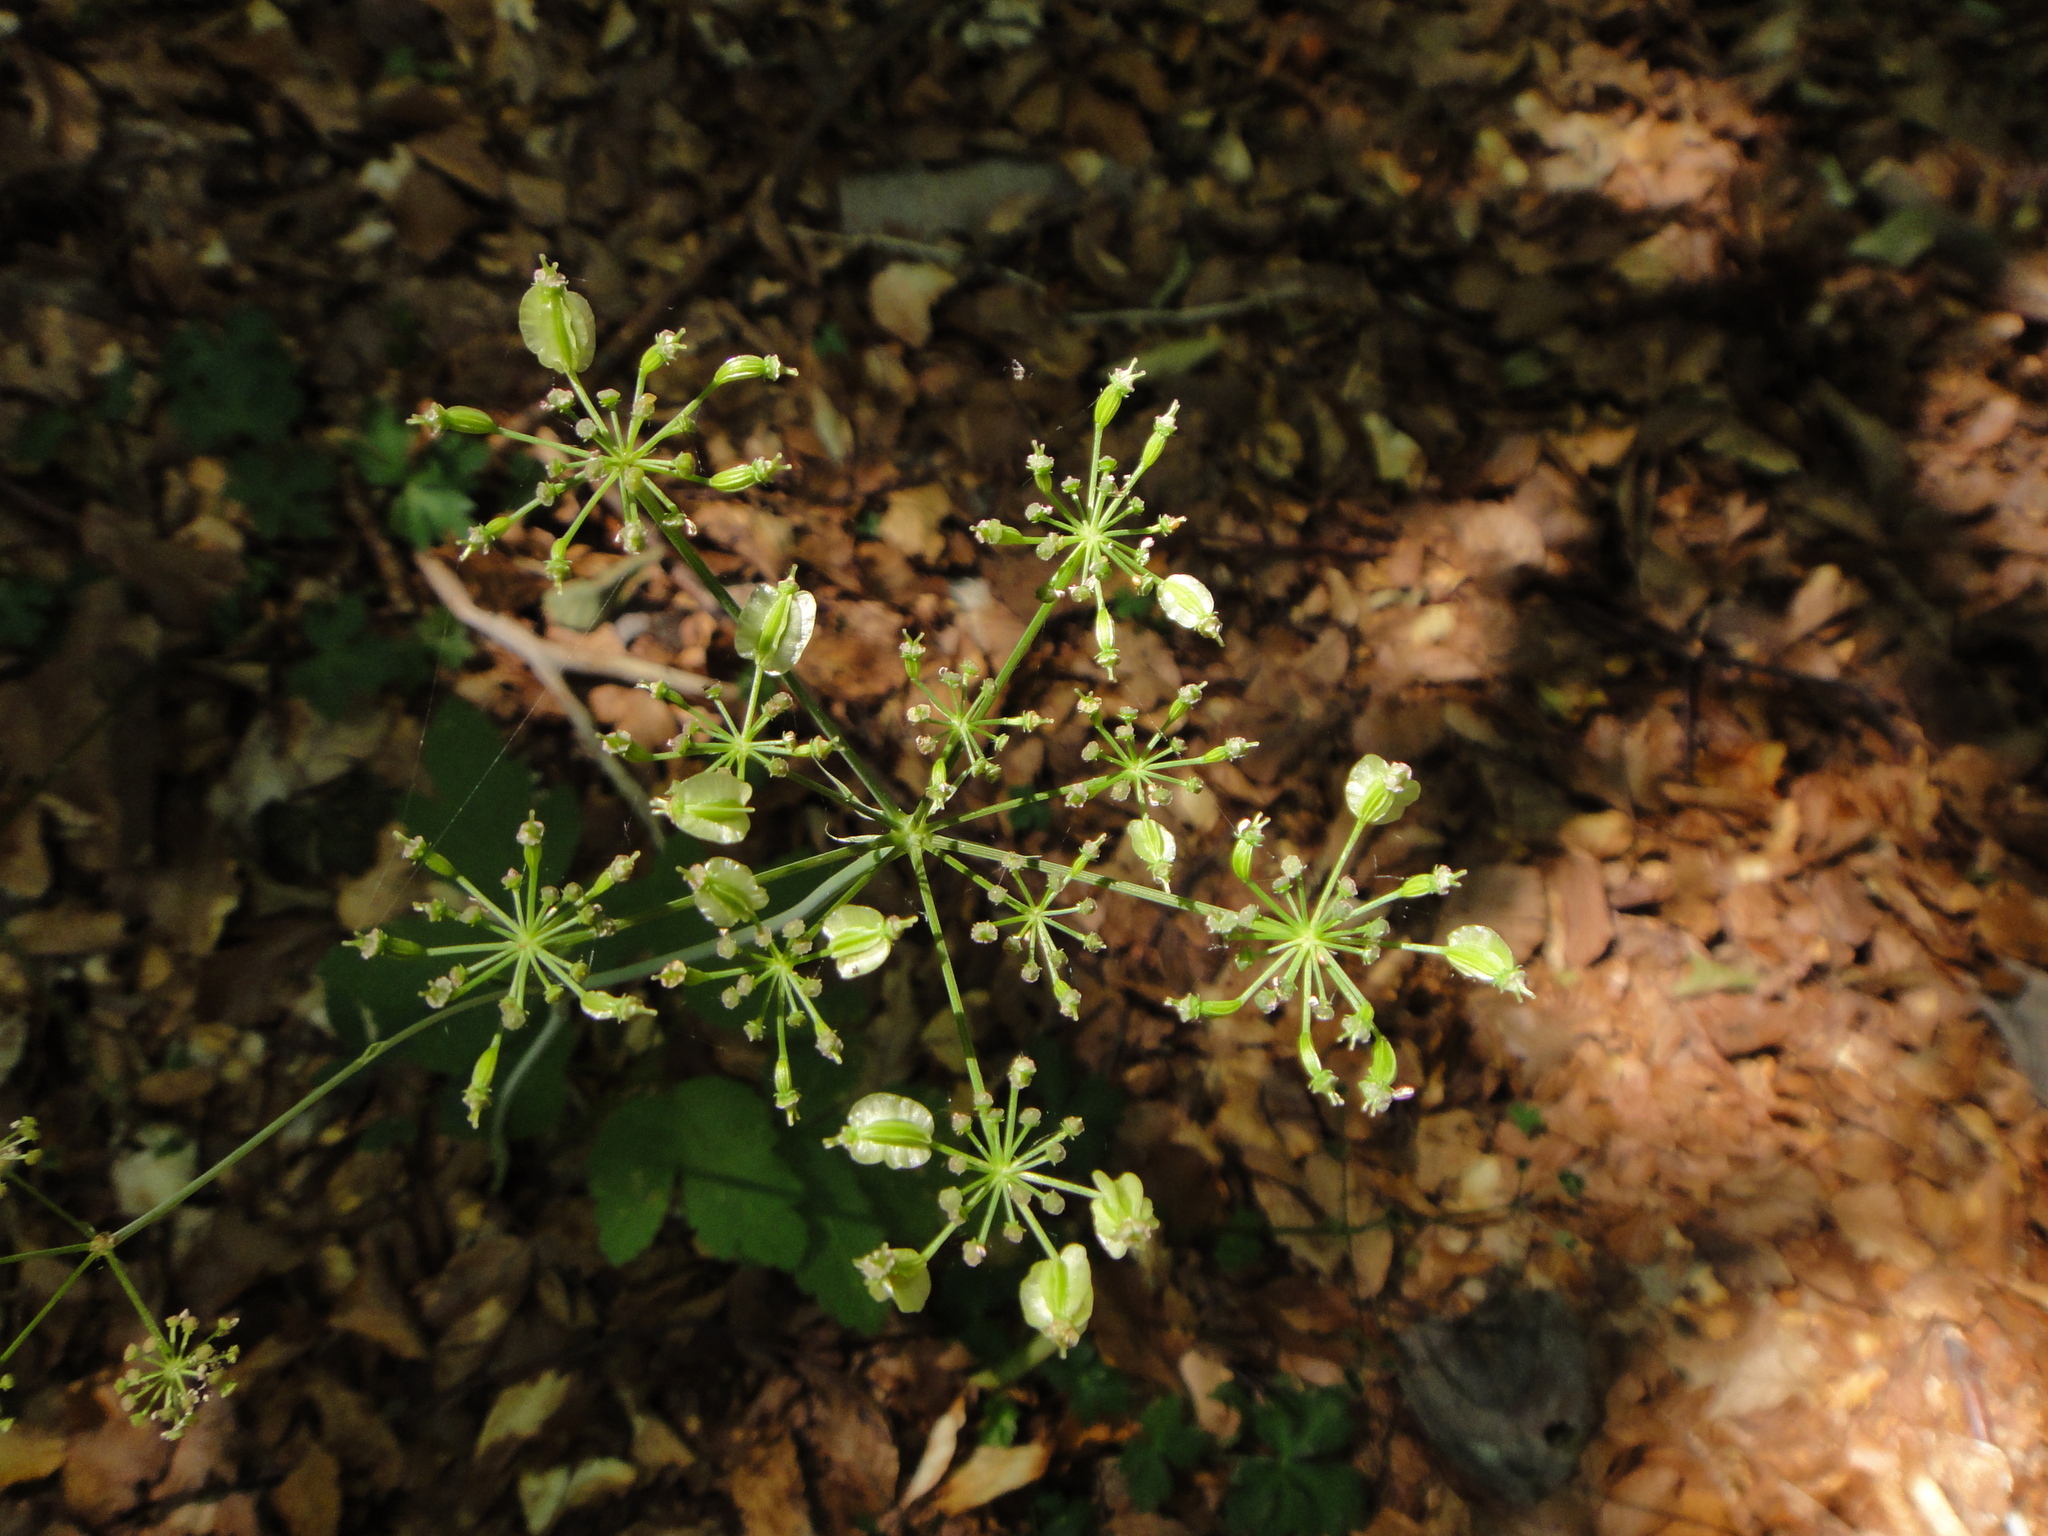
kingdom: Plantae
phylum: Tracheophyta
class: Magnoliopsida
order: Apiales
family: Apiaceae
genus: Laserpitium
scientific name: Laserpitium krapffii
